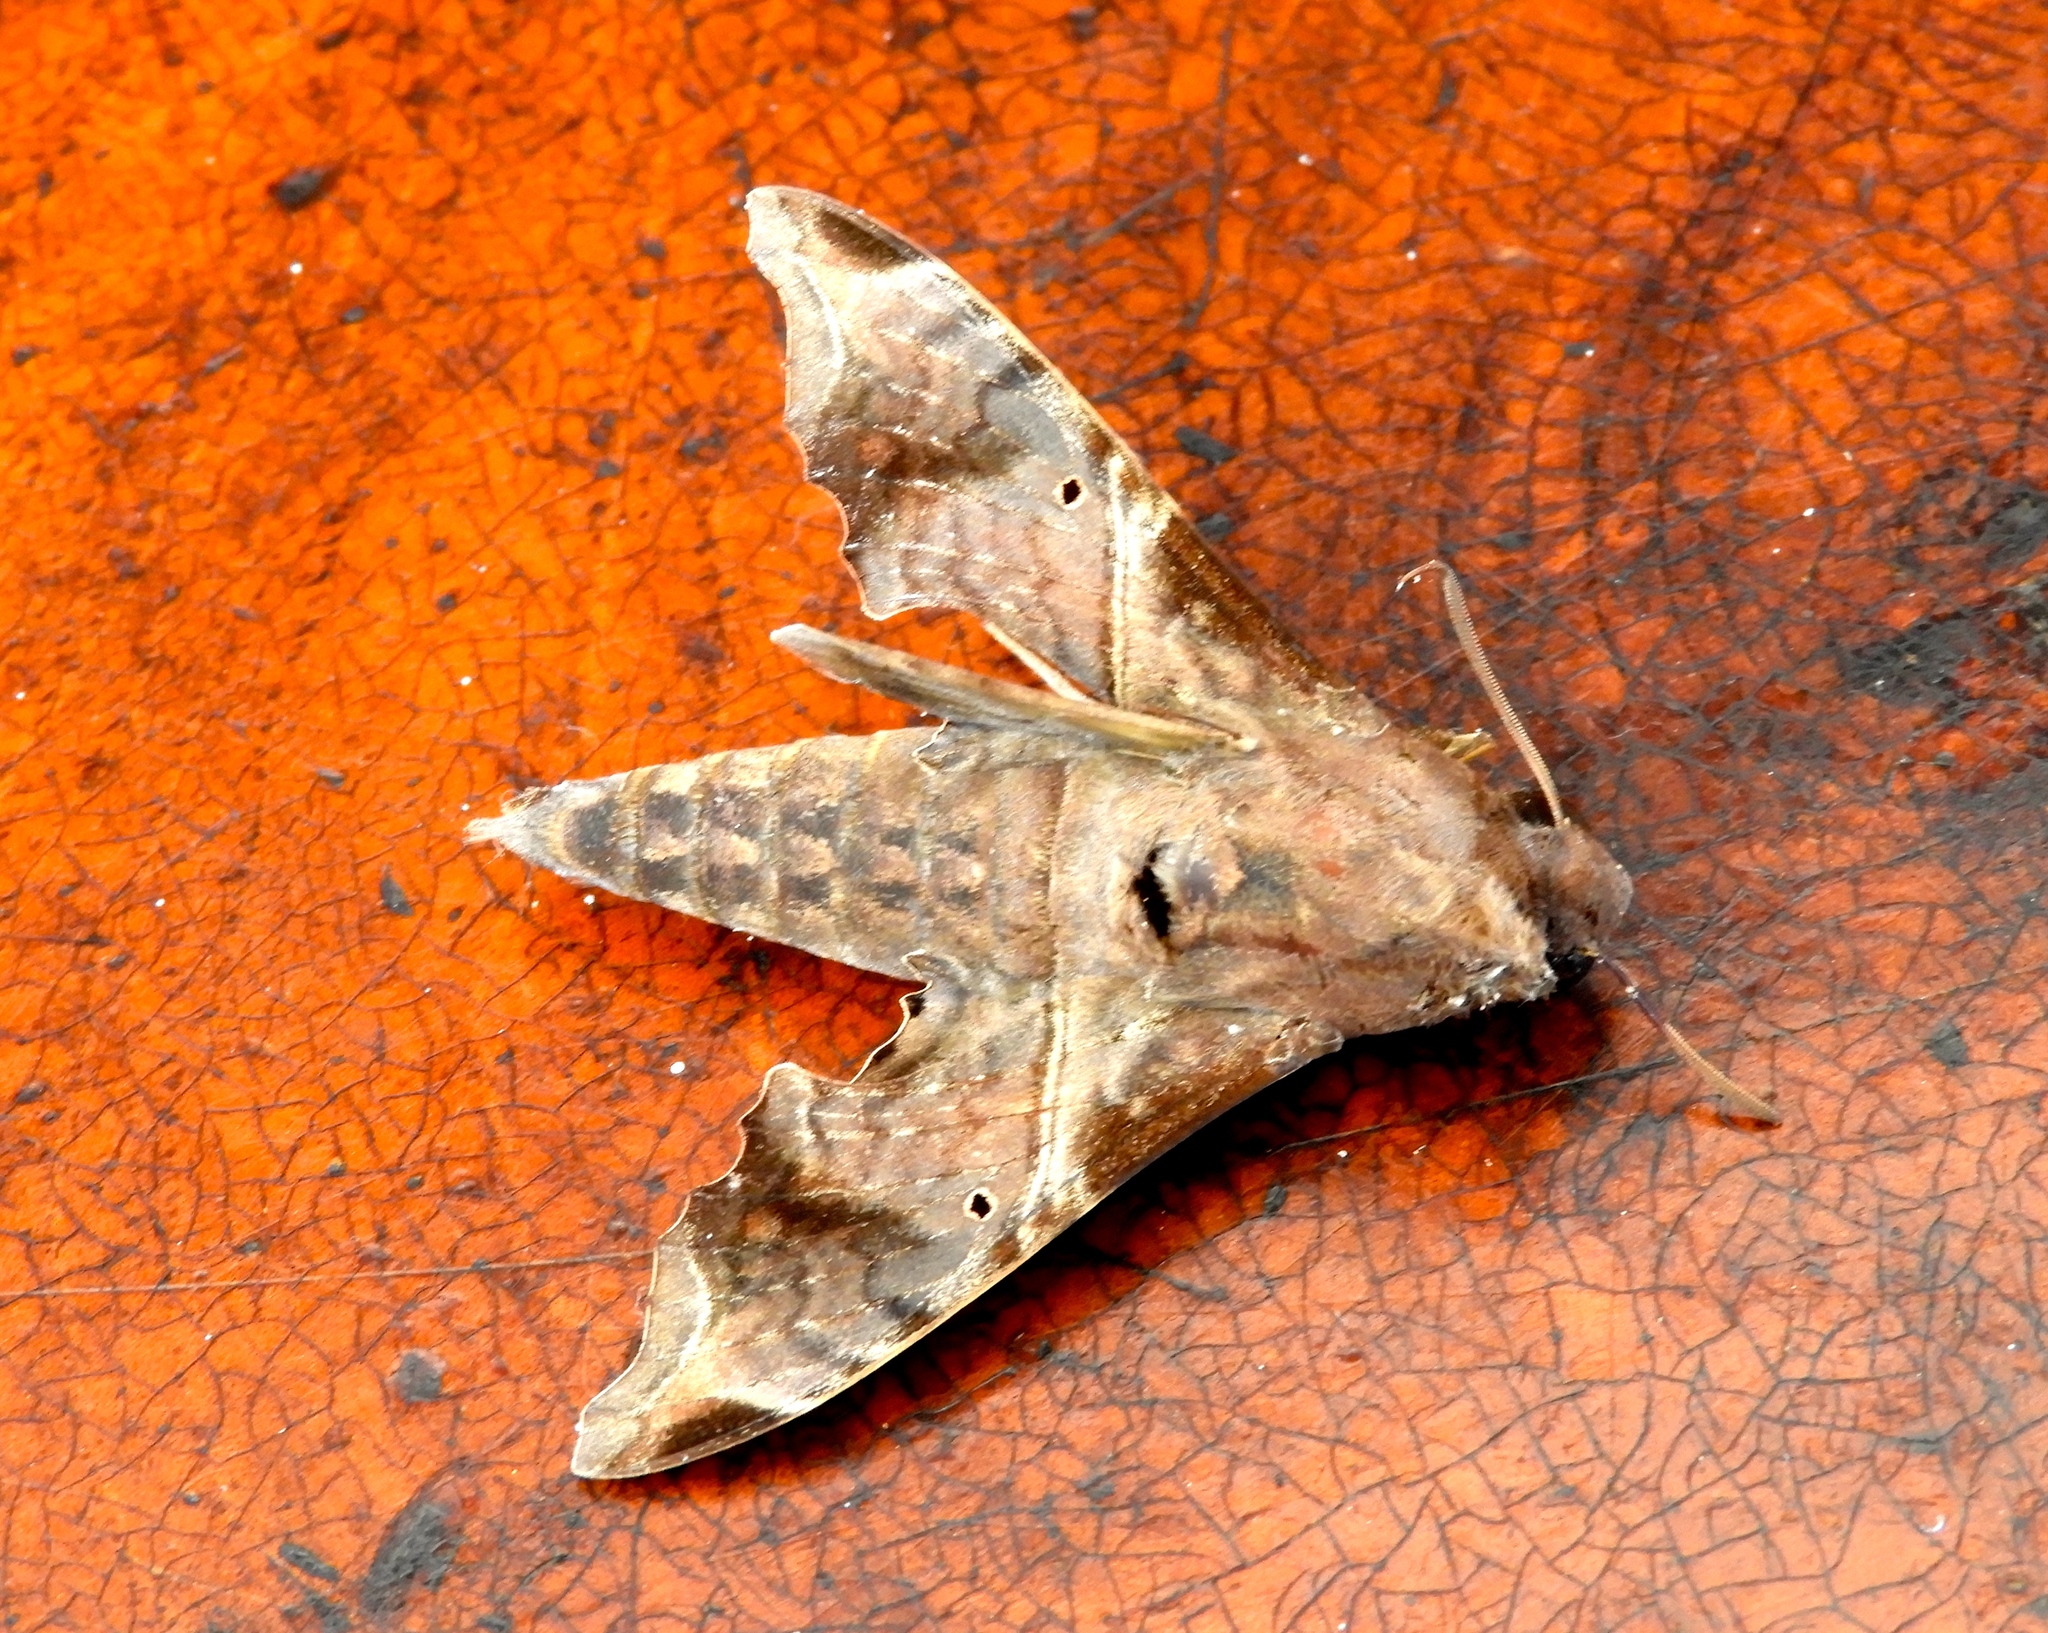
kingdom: Animalia
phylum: Arthropoda
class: Insecta
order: Lepidoptera
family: Sphingidae
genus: Enyo
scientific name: Enyo lugubris
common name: Mournful sphinx
